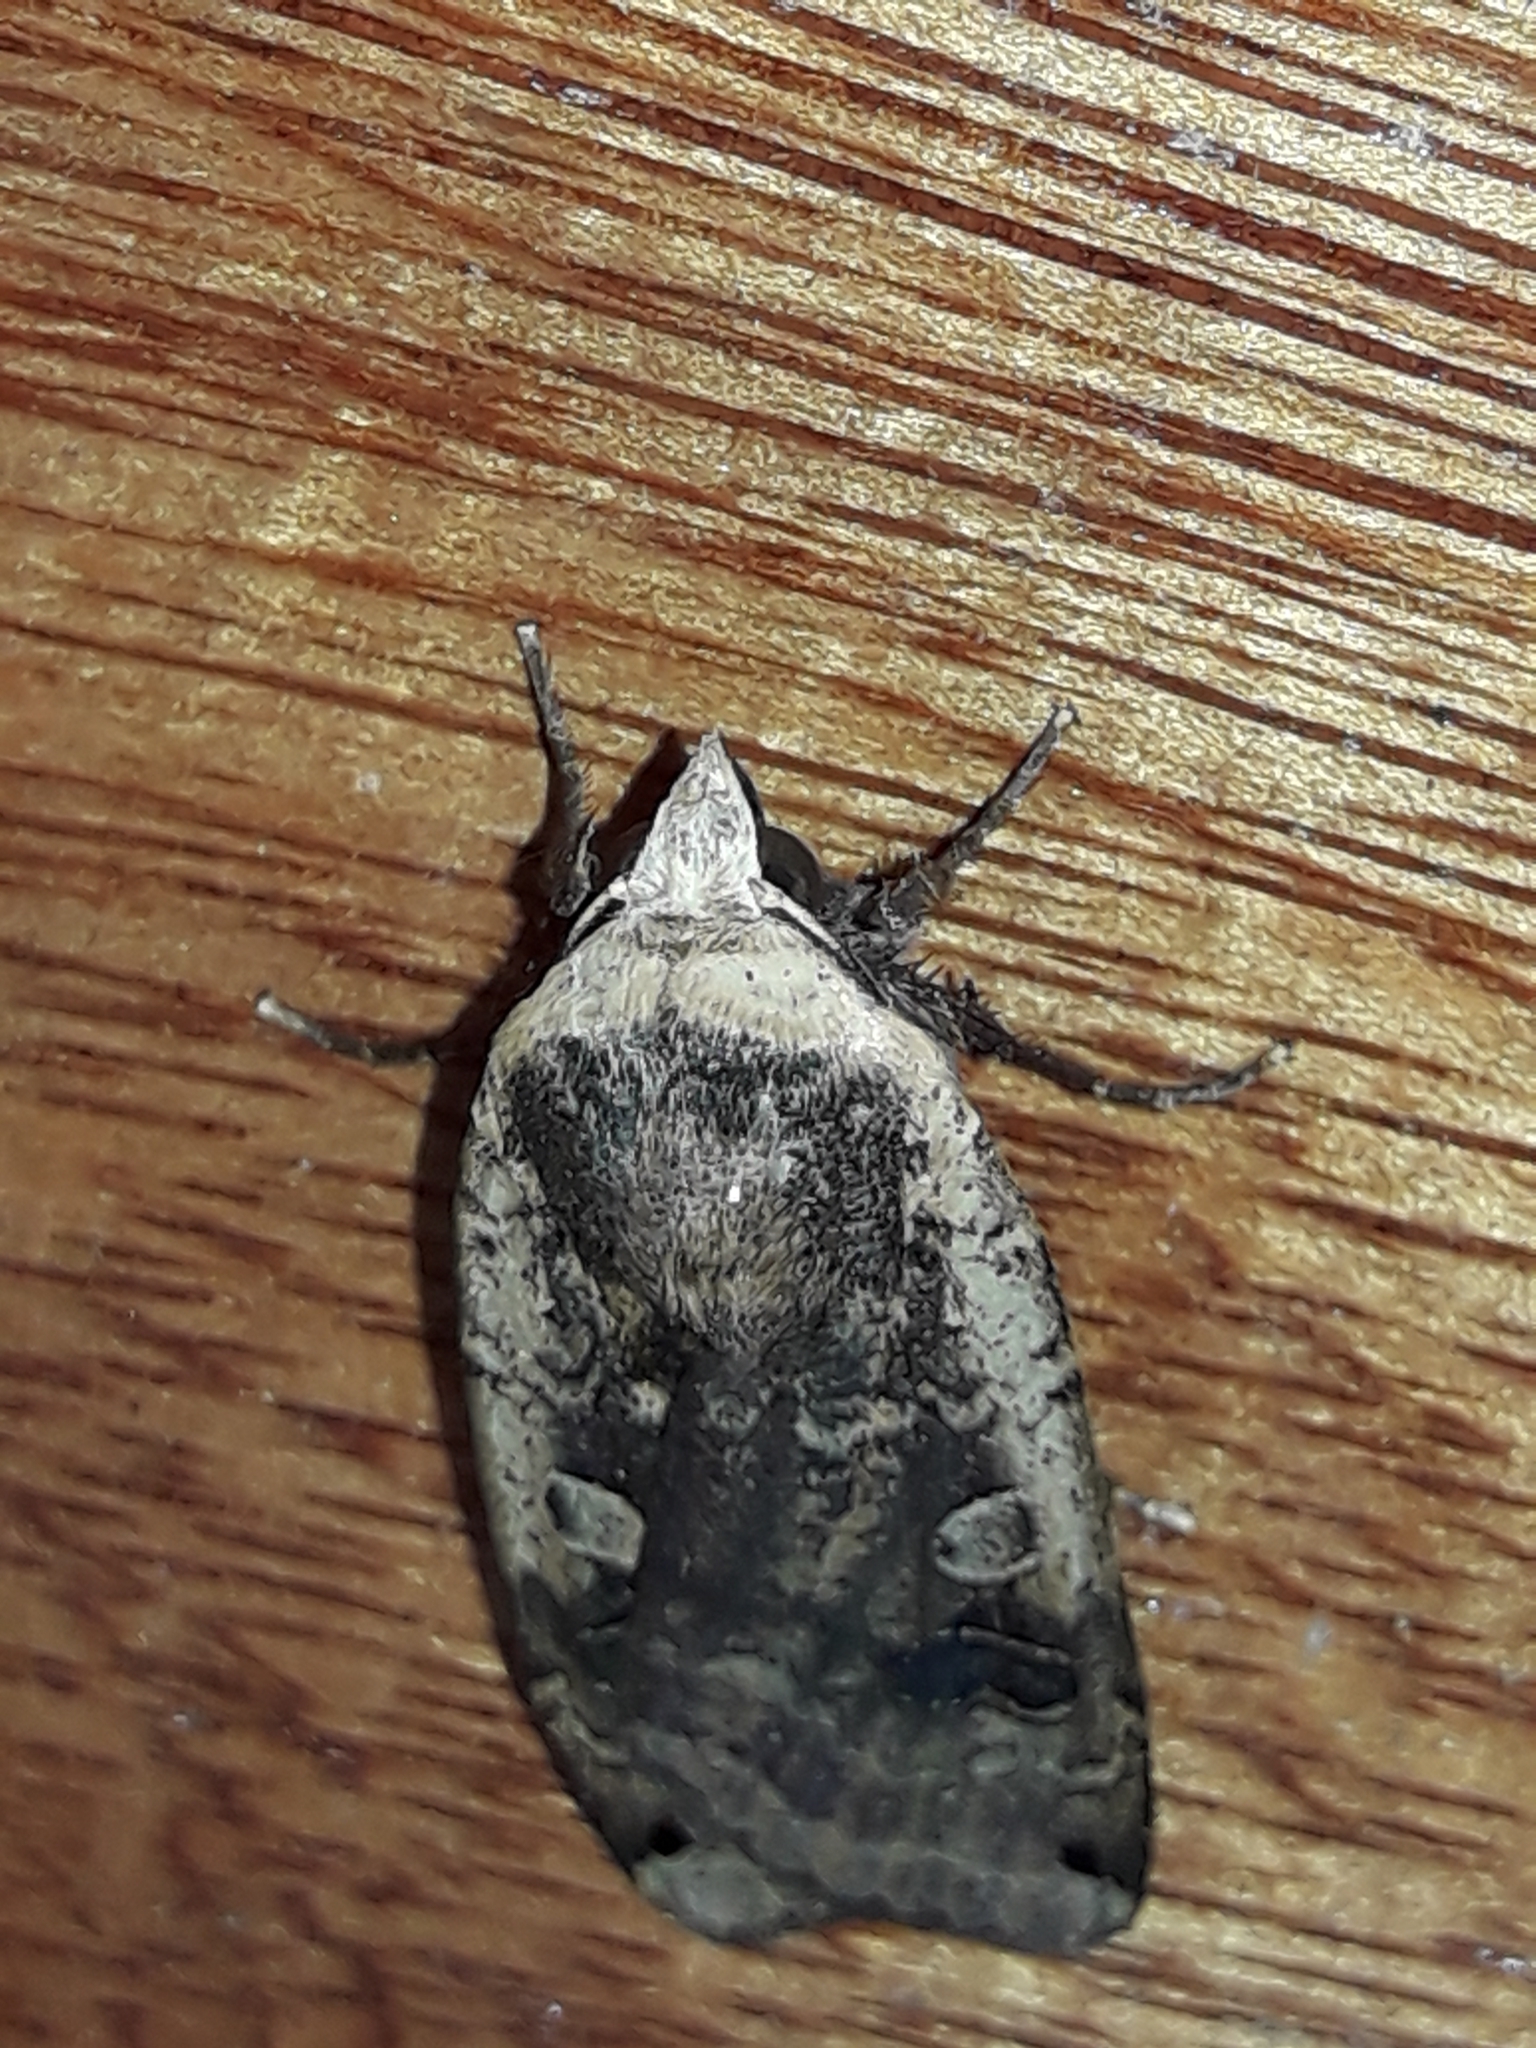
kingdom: Animalia
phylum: Arthropoda
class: Insecta
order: Lepidoptera
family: Noctuidae
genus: Noctua
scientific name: Noctua pronuba
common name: Large yellow underwing
